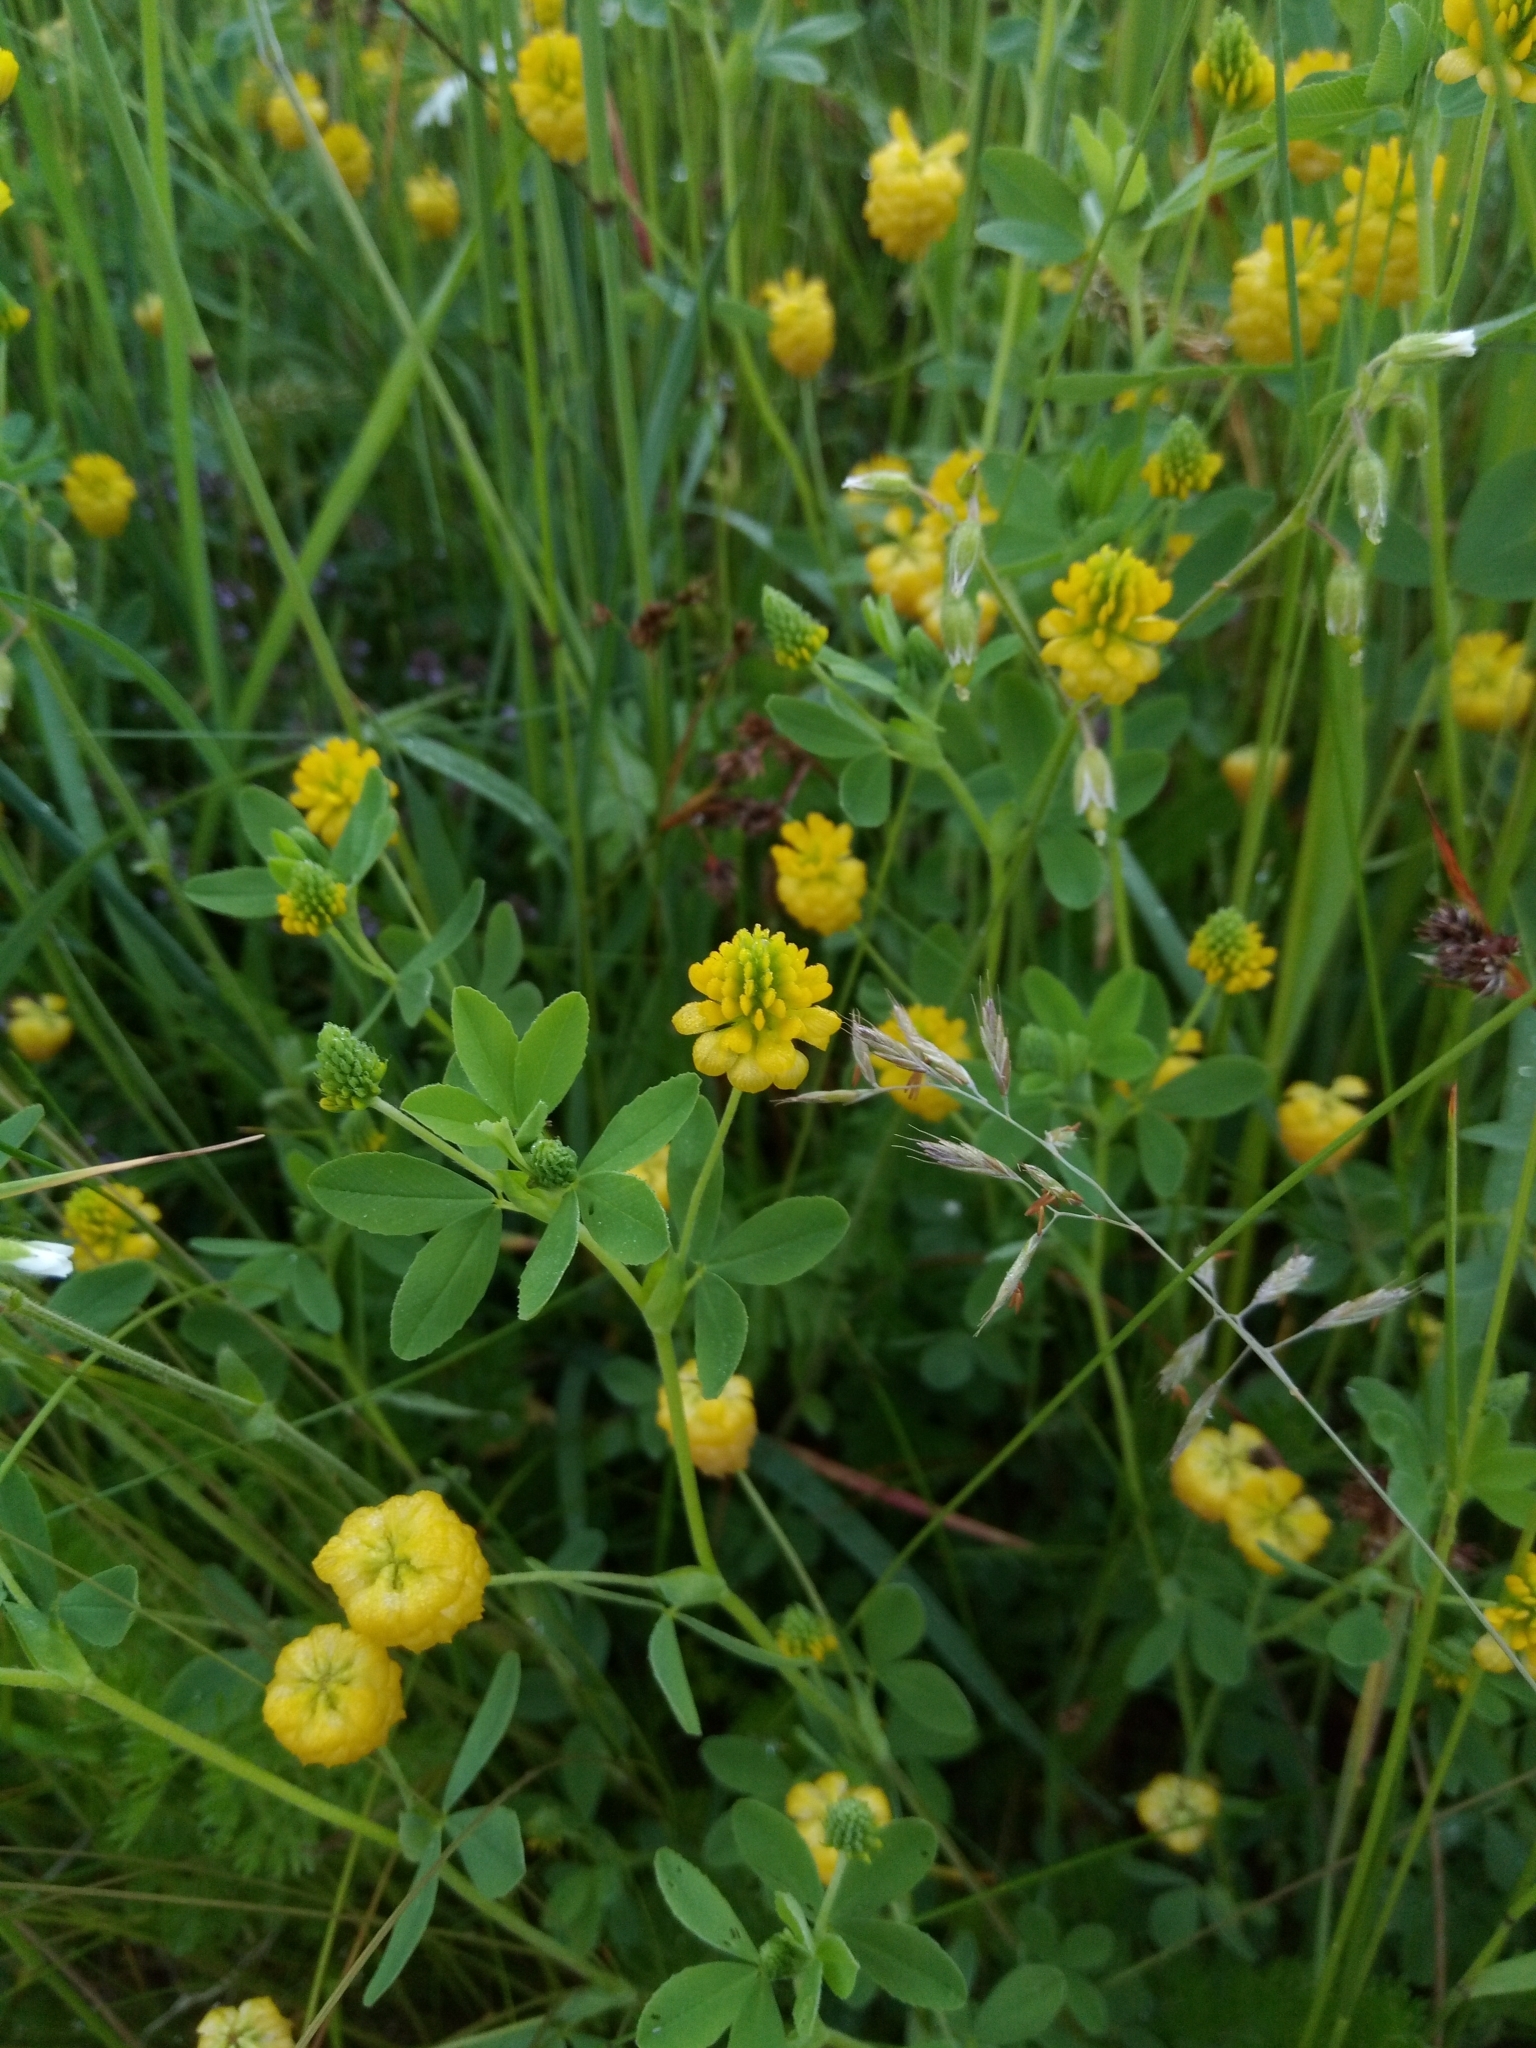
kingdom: Plantae
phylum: Tracheophyta
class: Magnoliopsida
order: Fabales
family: Fabaceae
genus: Trifolium
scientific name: Trifolium aureum
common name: Golden clover
